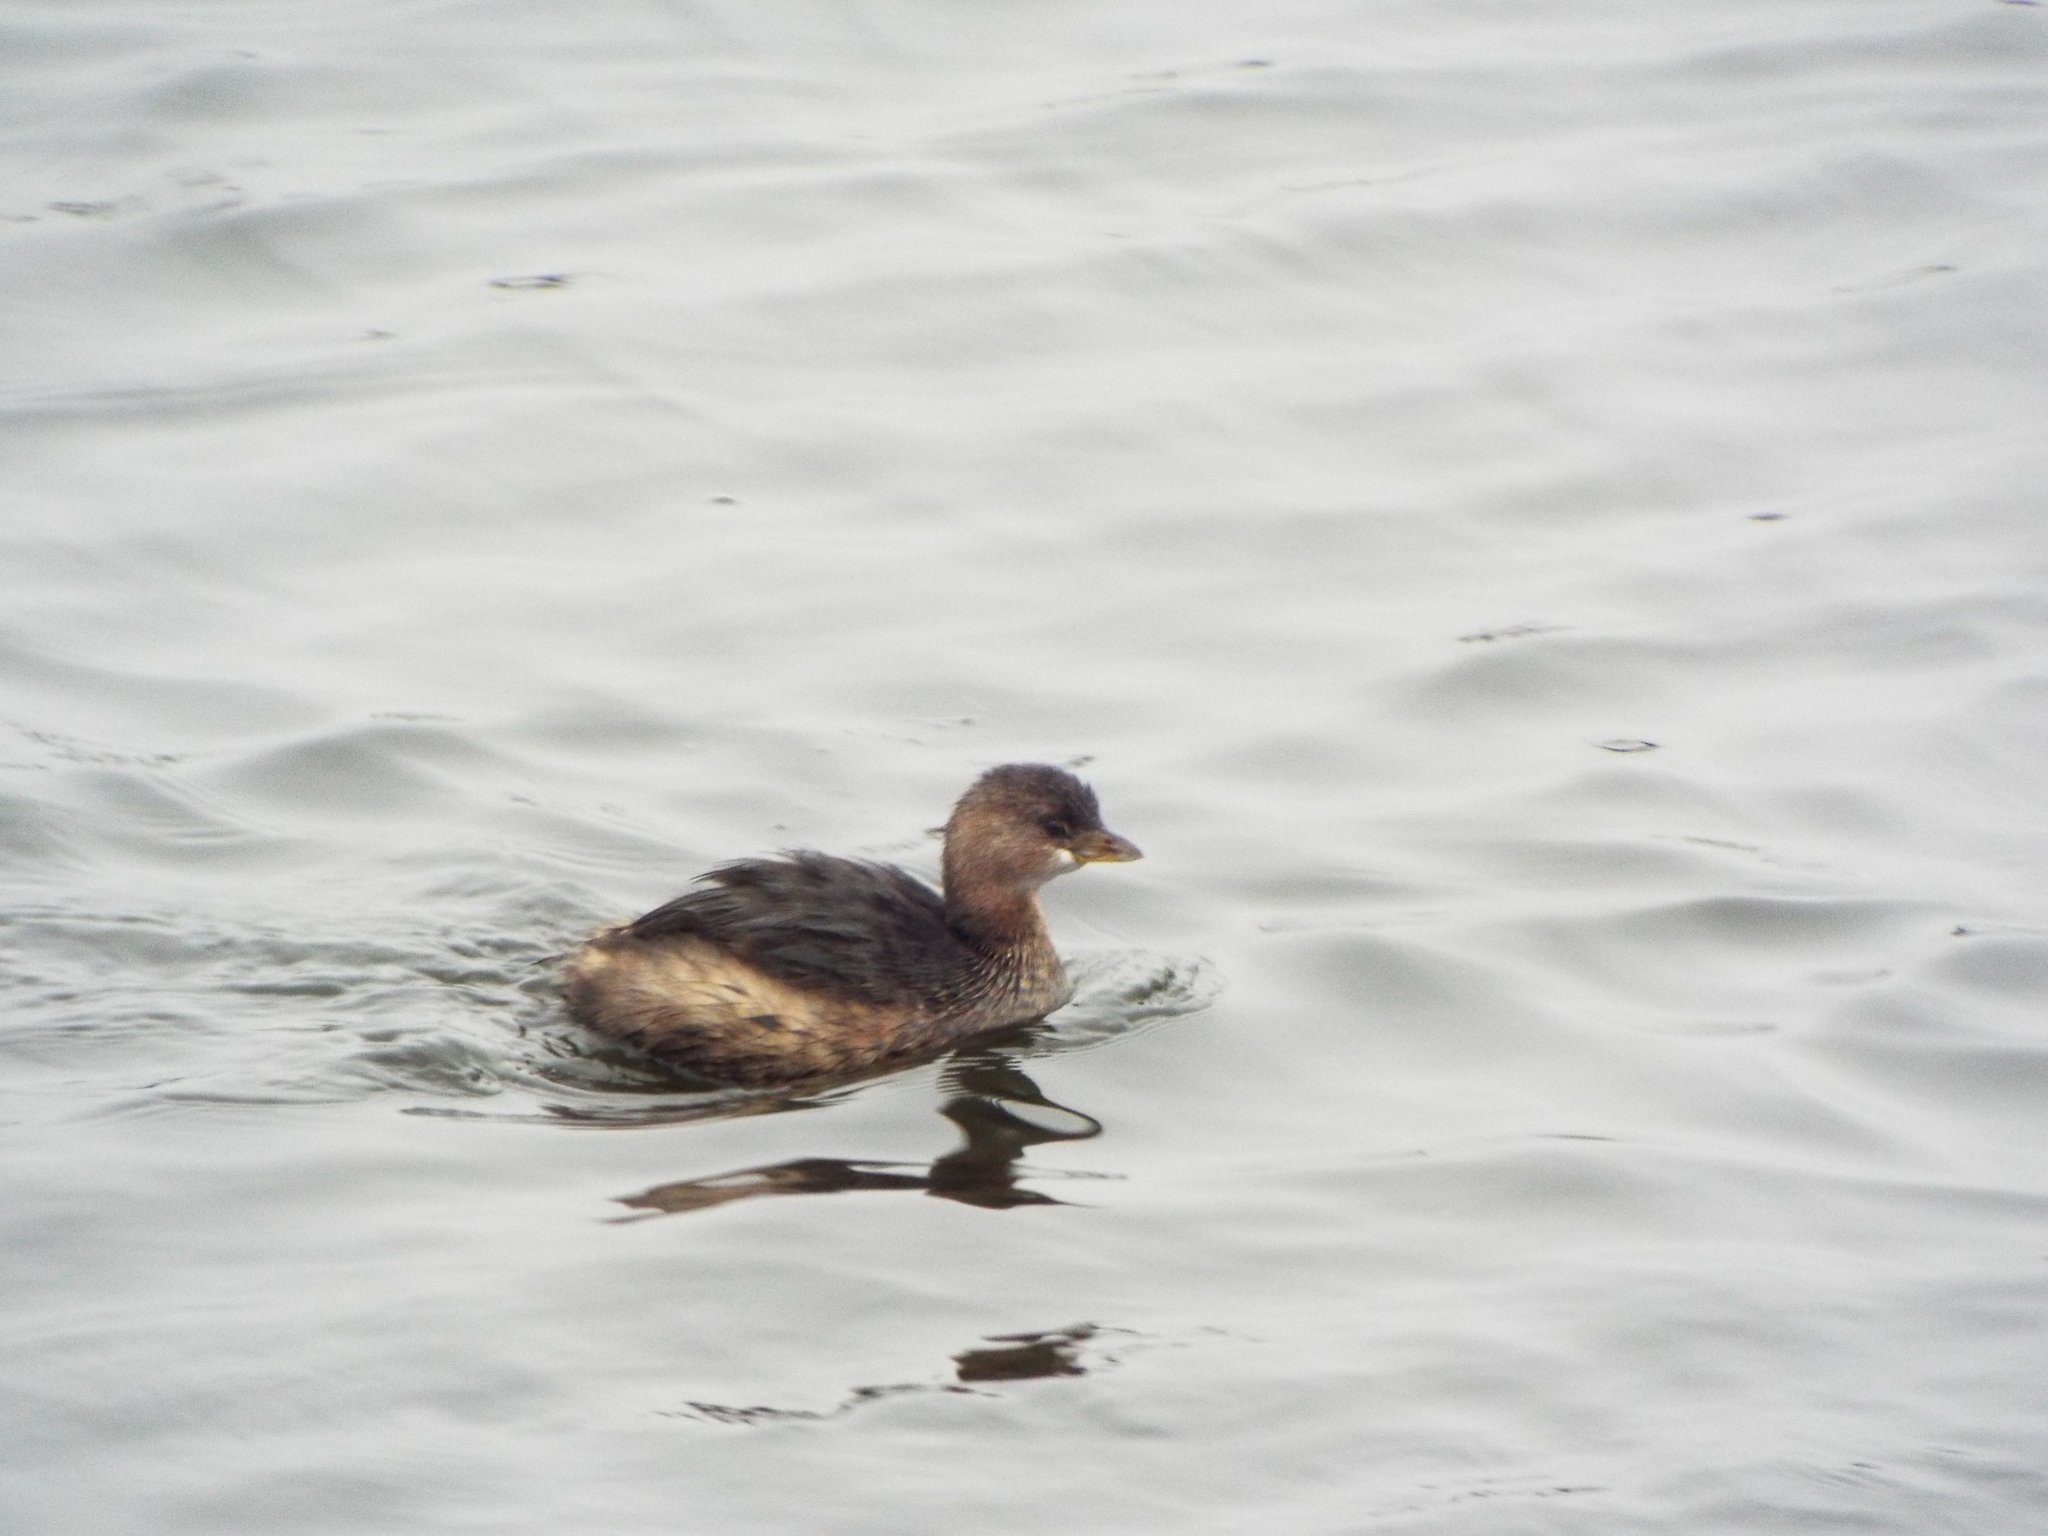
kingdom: Animalia
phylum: Chordata
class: Aves
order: Podicipediformes
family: Podicipedidae
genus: Podilymbus
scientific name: Podilymbus podiceps
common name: Pied-billed grebe
